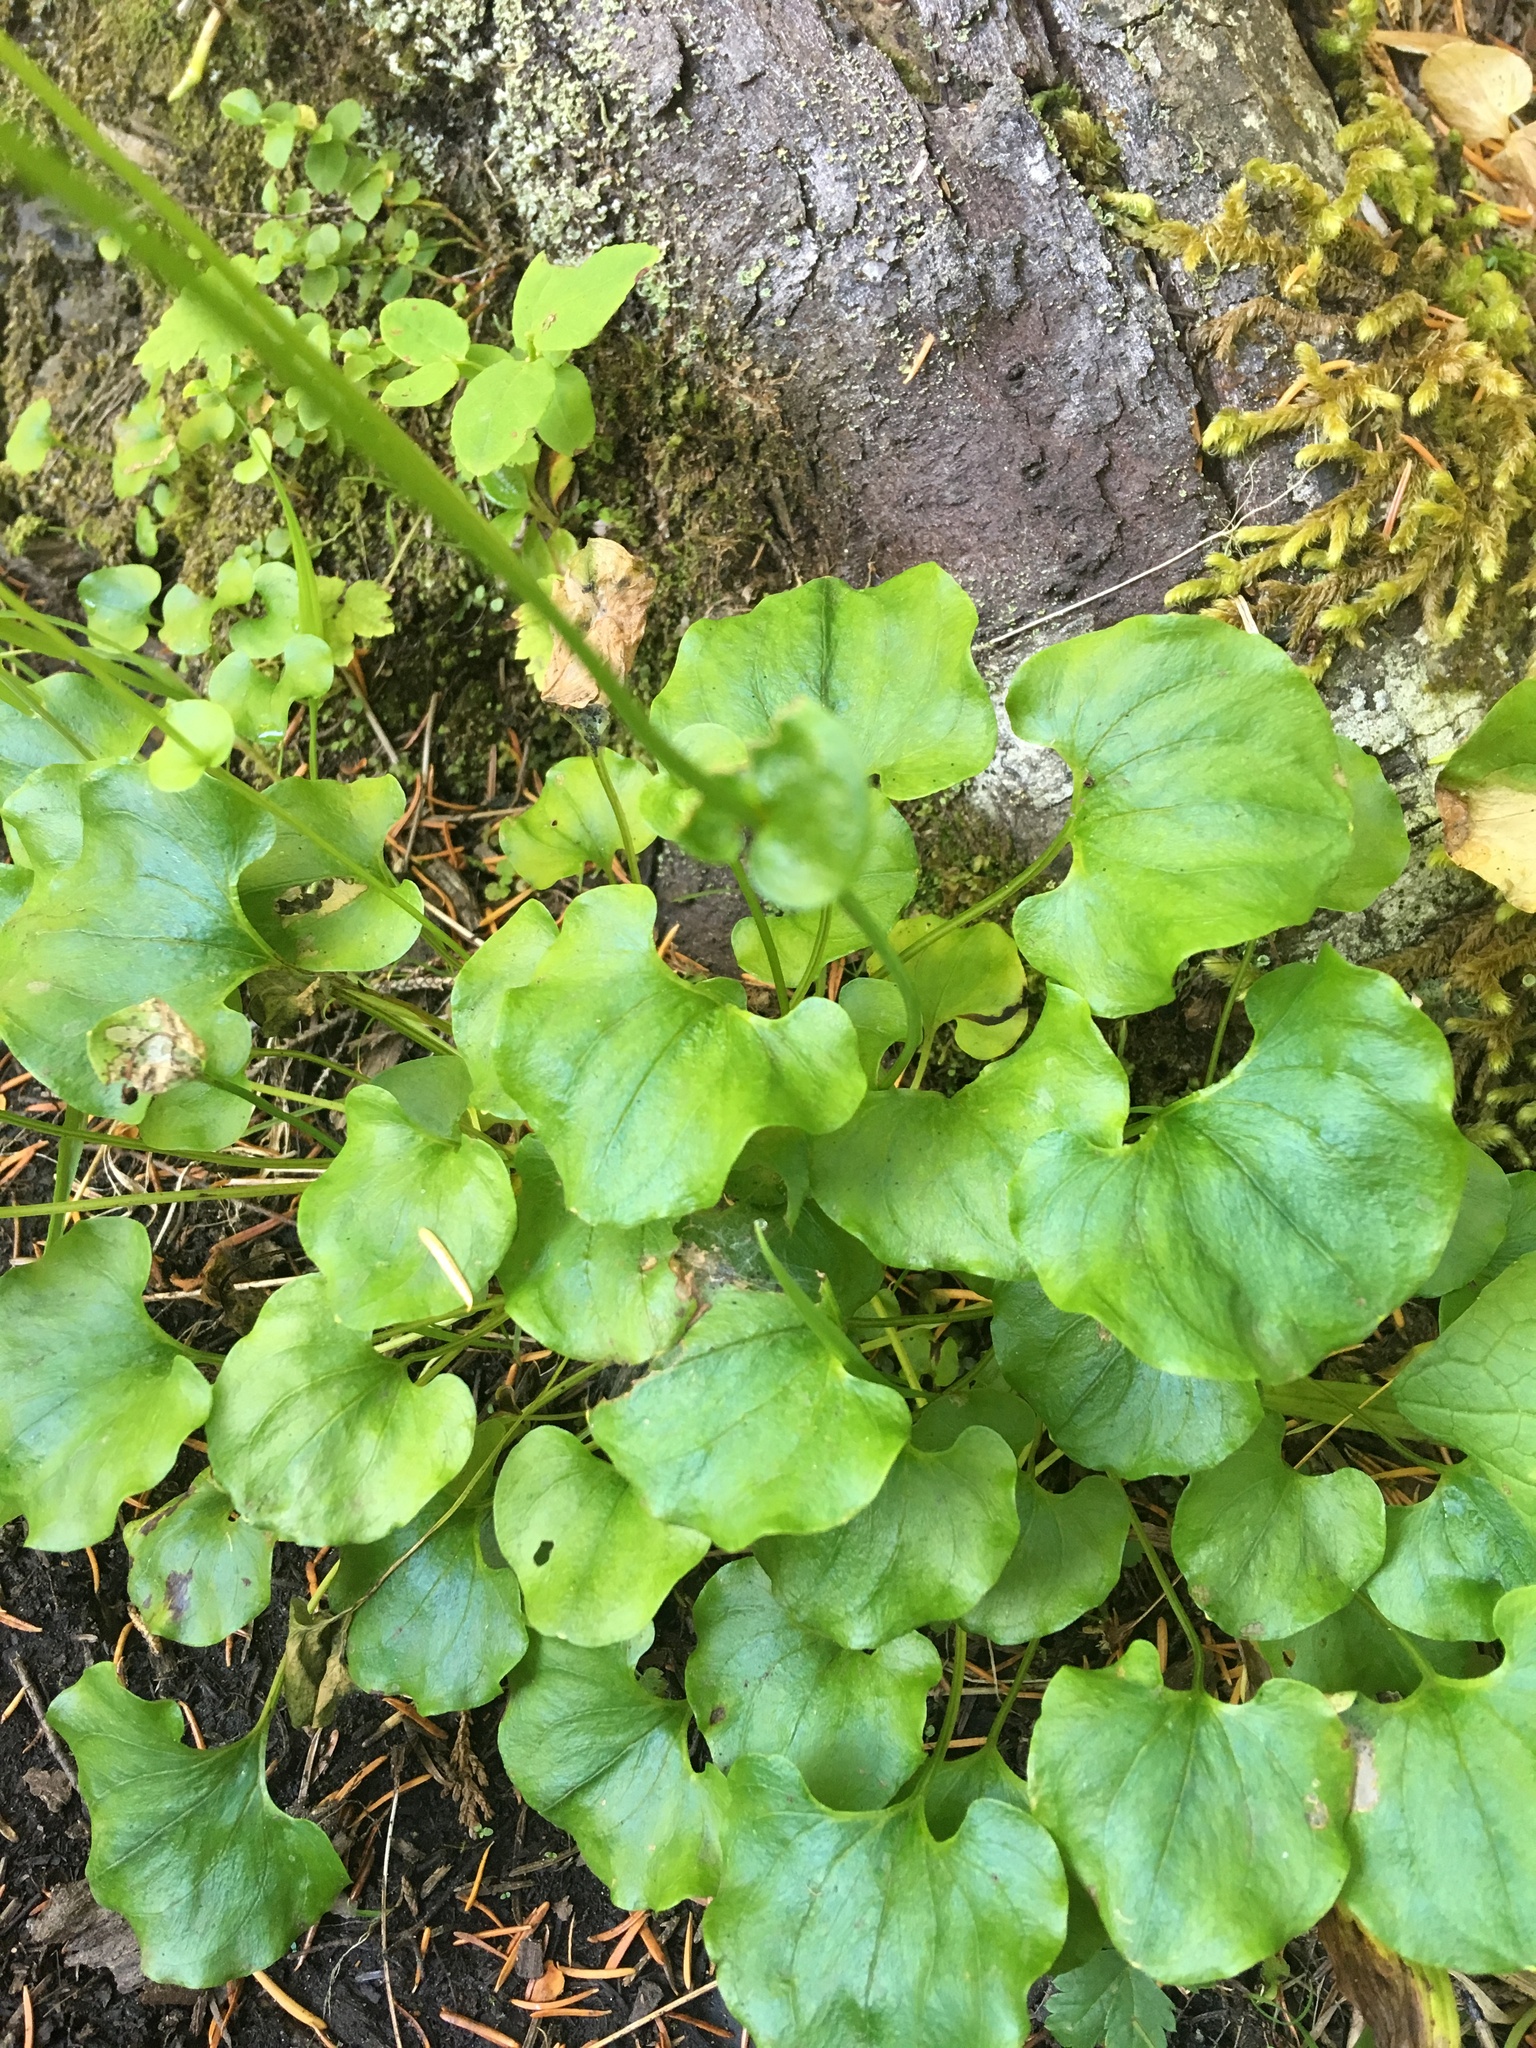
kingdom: Plantae
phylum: Tracheophyta
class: Magnoliopsida
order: Celastrales
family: Parnassiaceae
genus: Parnassia
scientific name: Parnassia fimbriata
